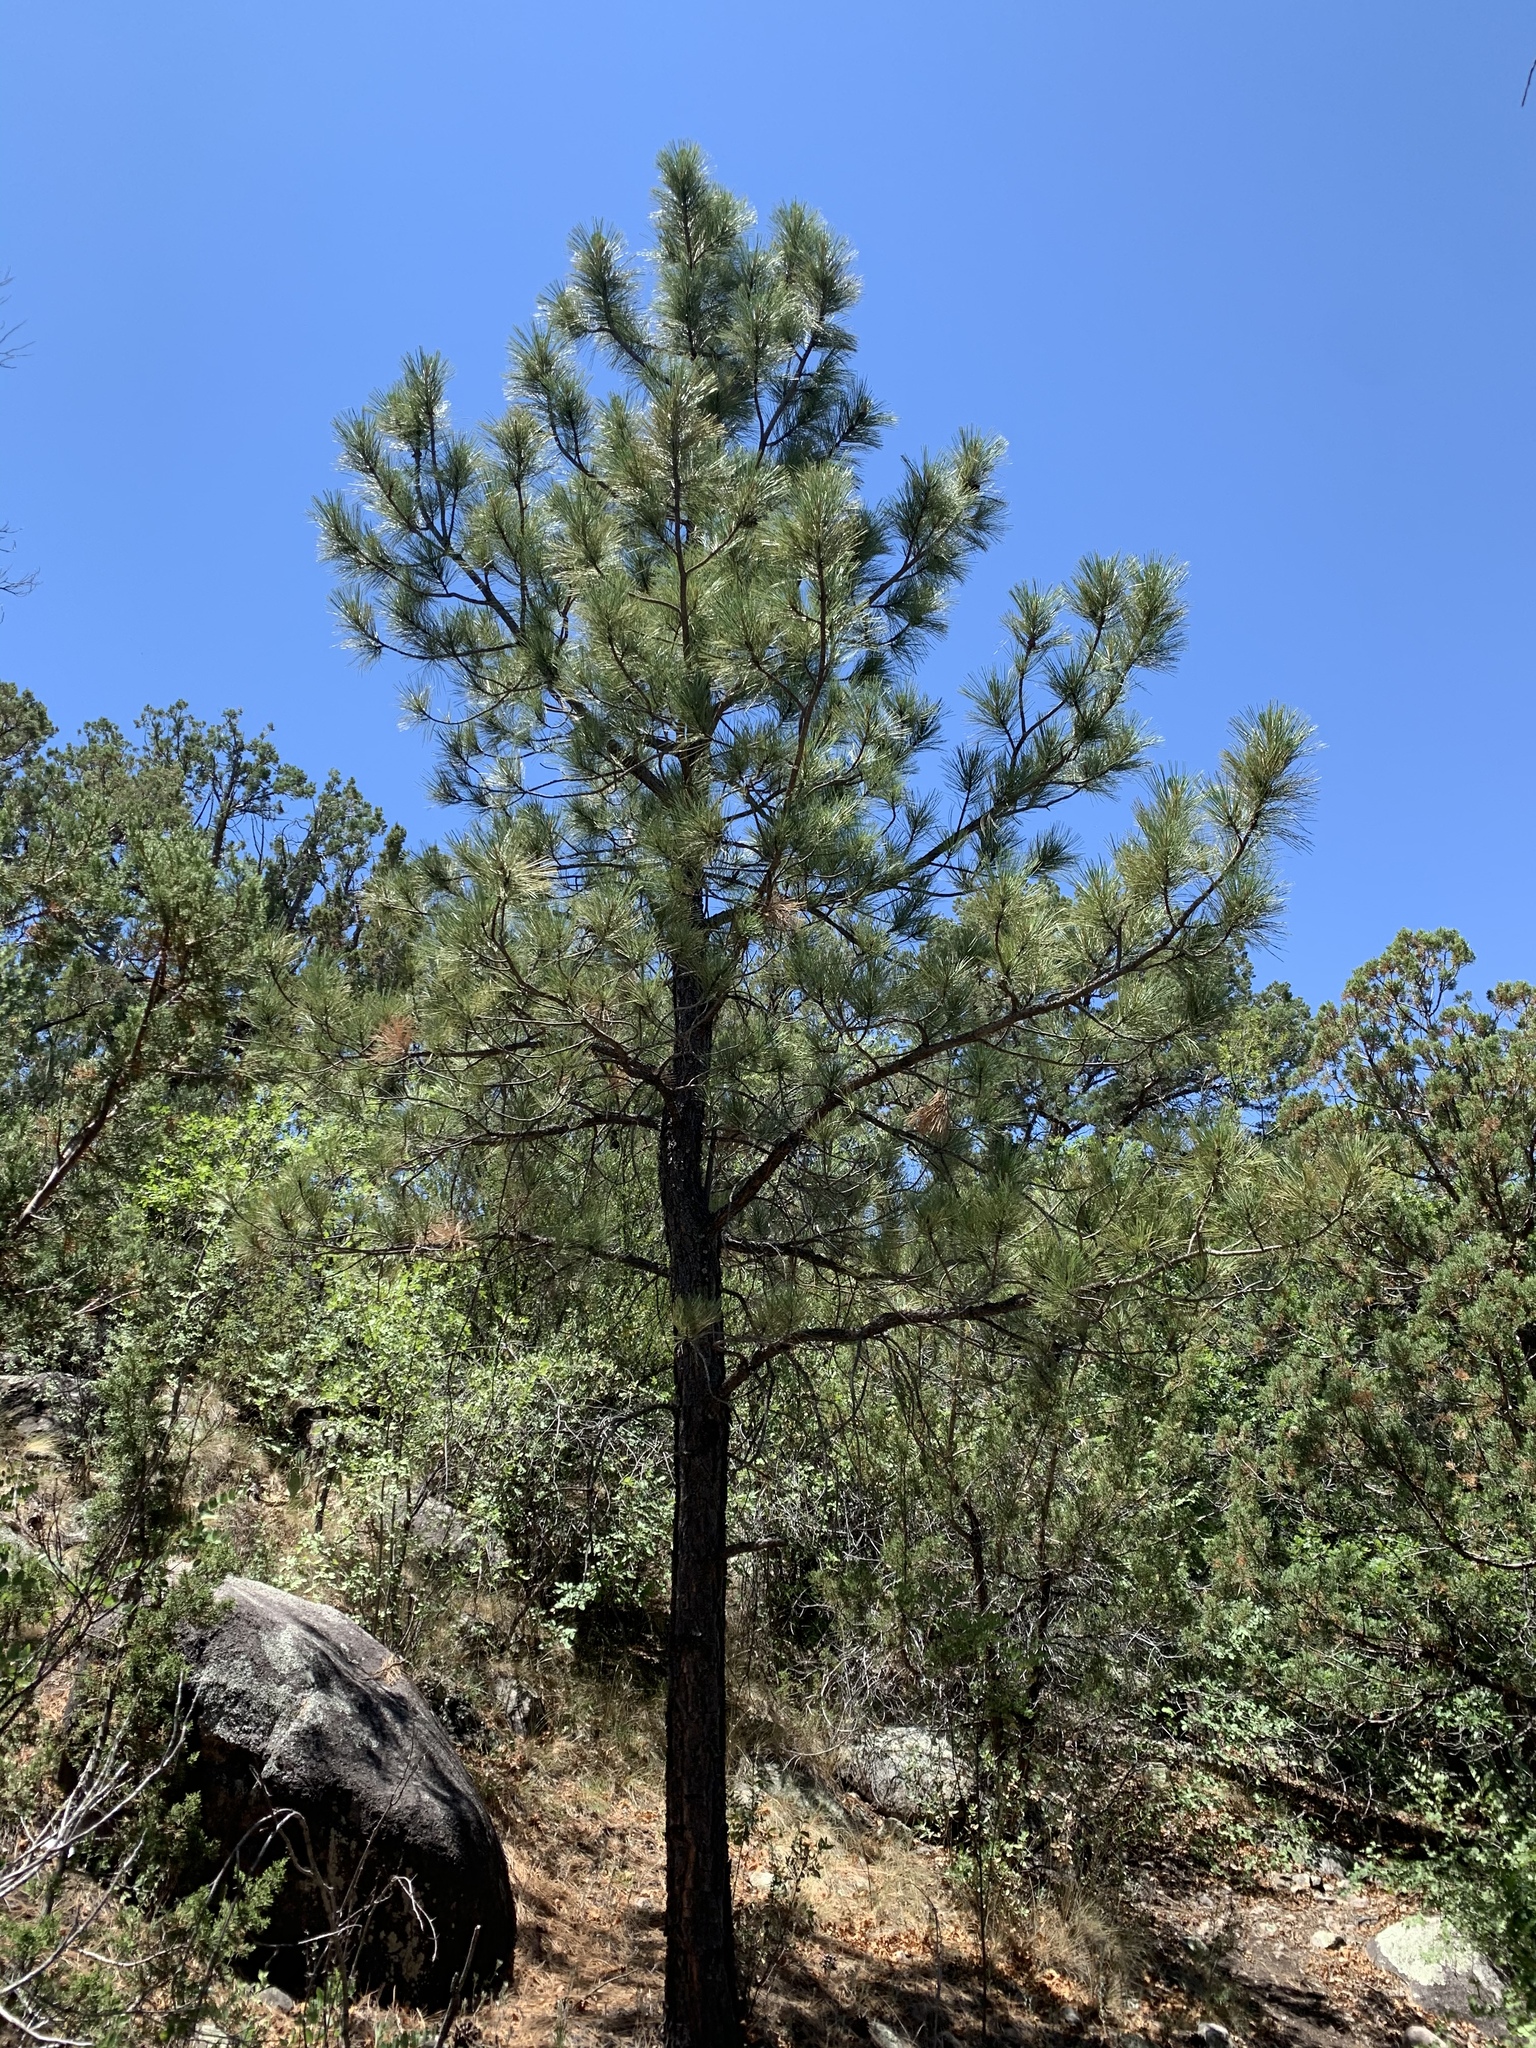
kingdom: Plantae
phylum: Tracheophyta
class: Pinopsida
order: Pinales
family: Pinaceae
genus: Pinus
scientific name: Pinus ponderosa
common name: Western yellow-pine
